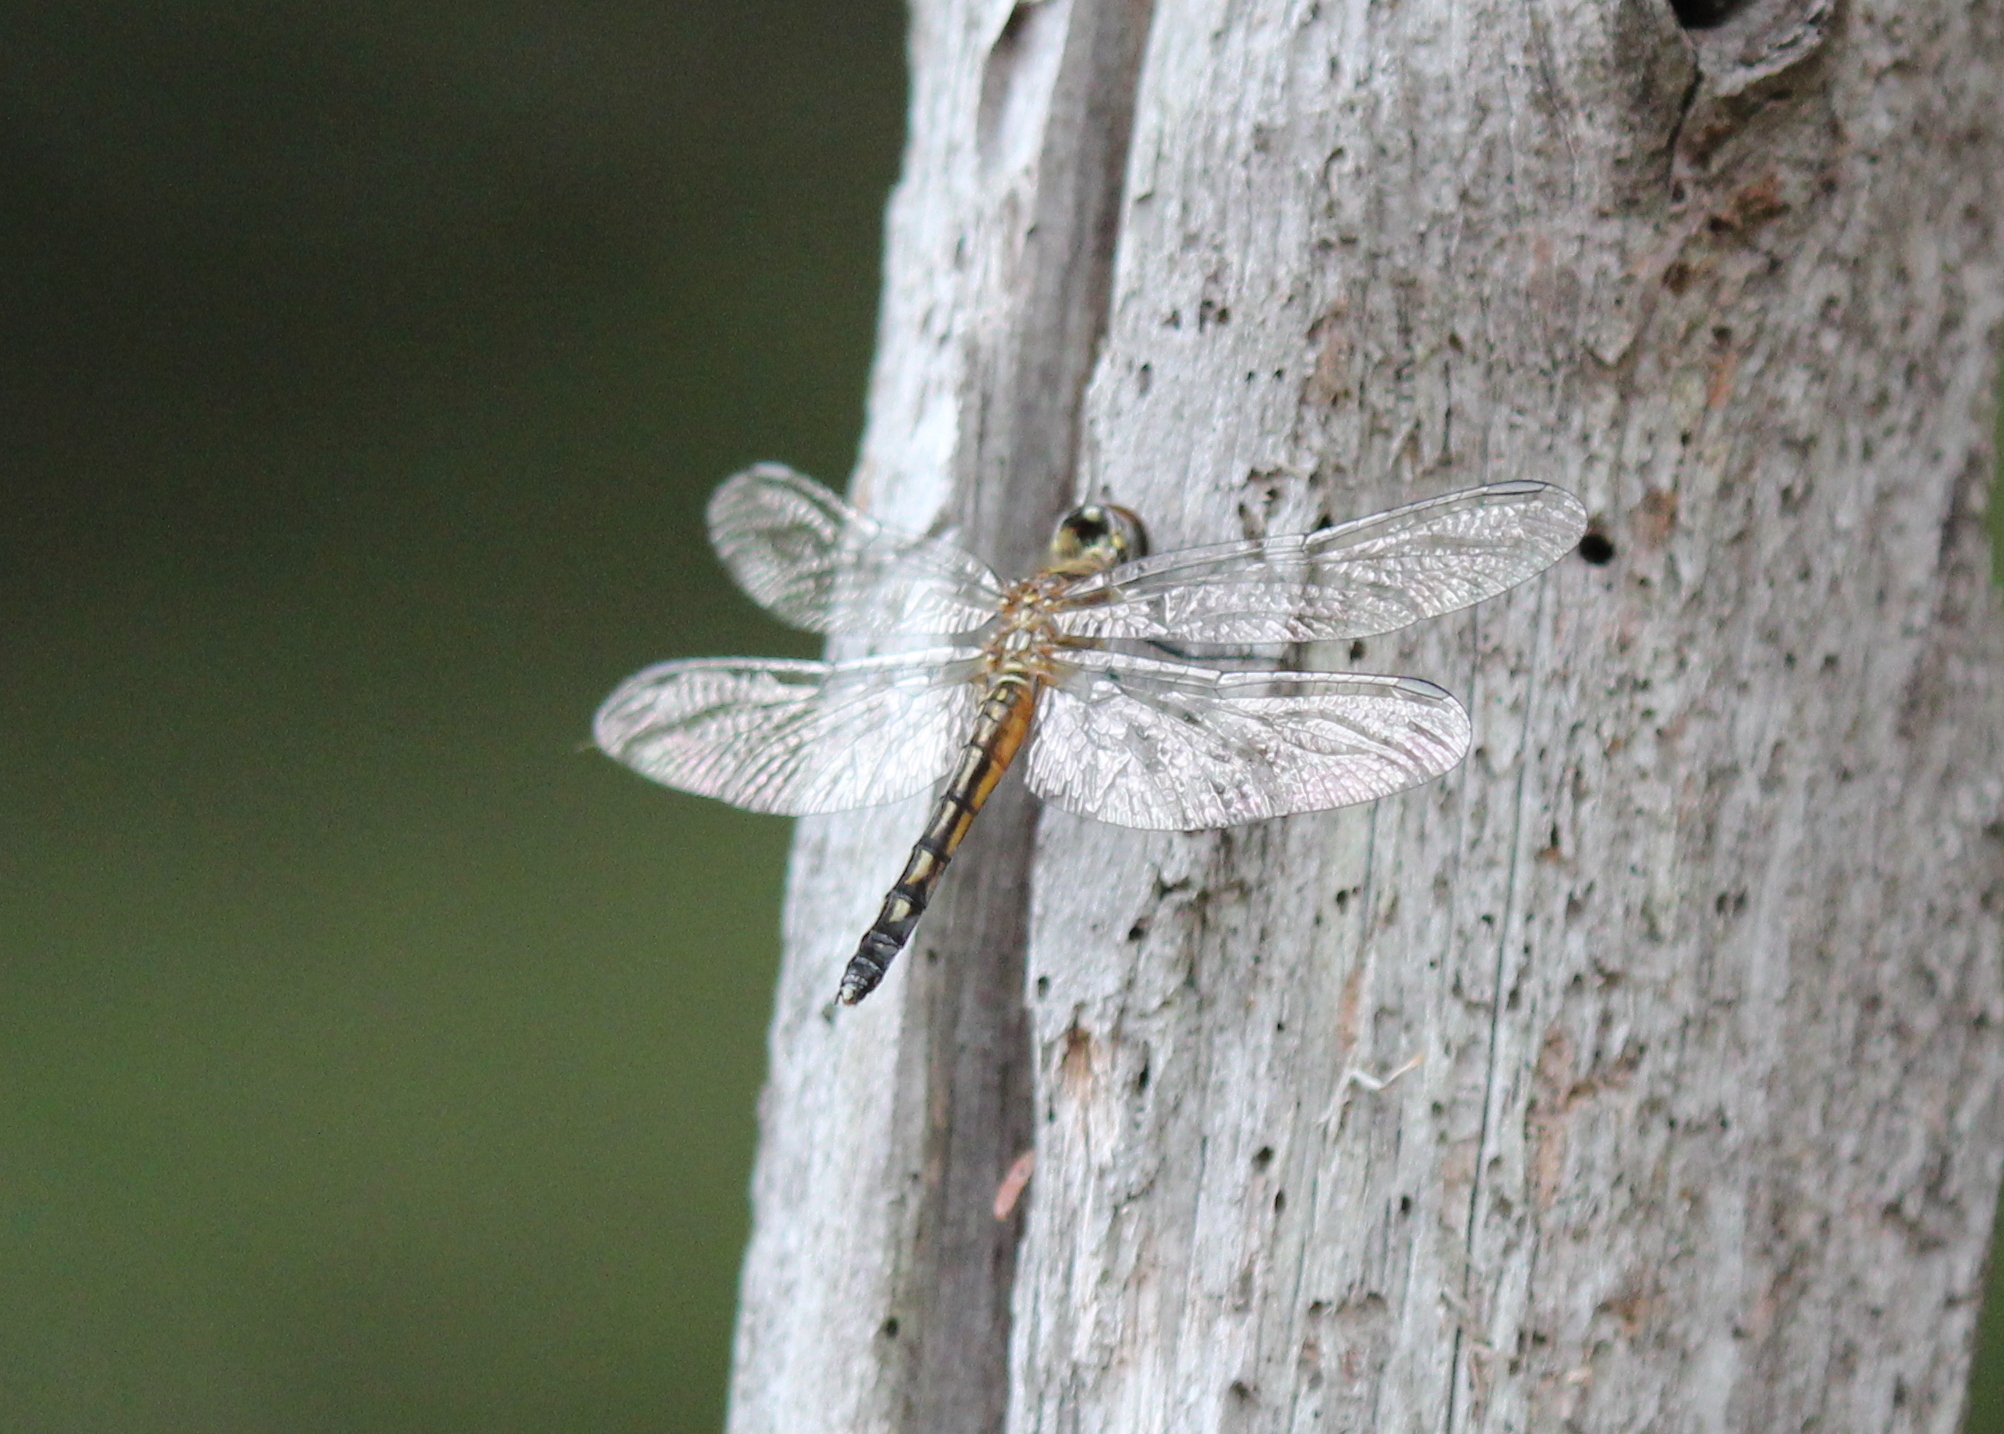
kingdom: Animalia
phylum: Arthropoda
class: Insecta
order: Odonata
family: Libellulidae
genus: Pachydiplax
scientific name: Pachydiplax longipennis
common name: Blue dasher
